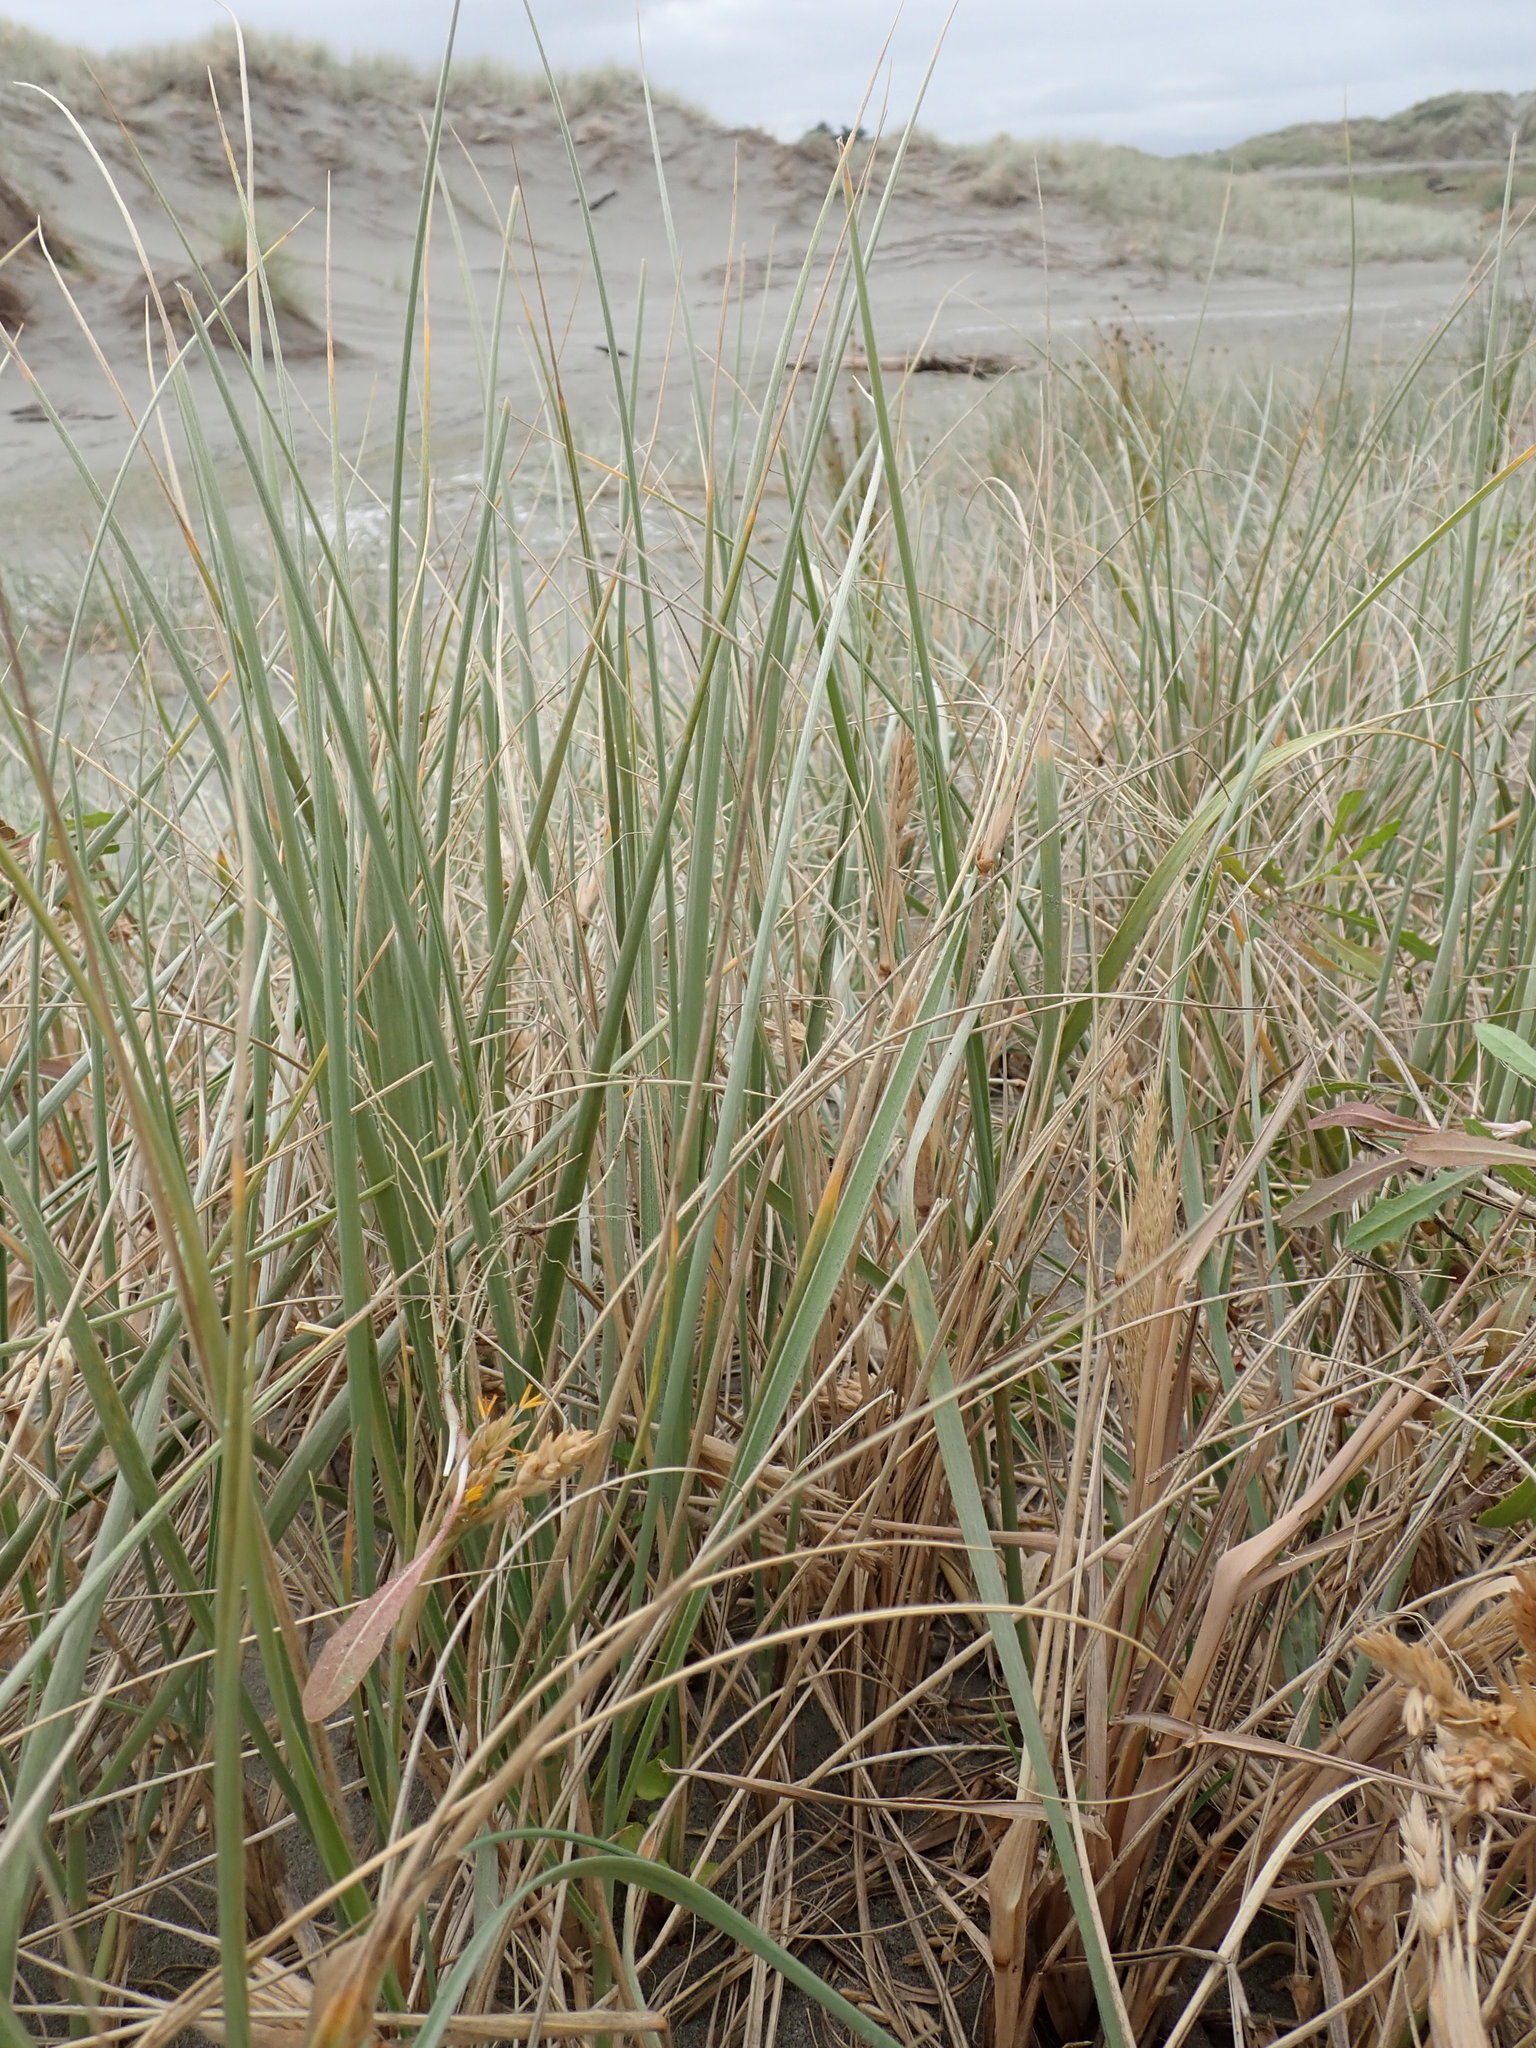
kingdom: Plantae
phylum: Tracheophyta
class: Liliopsida
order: Poales
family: Poaceae
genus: Spinifex
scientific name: Spinifex sericeus
